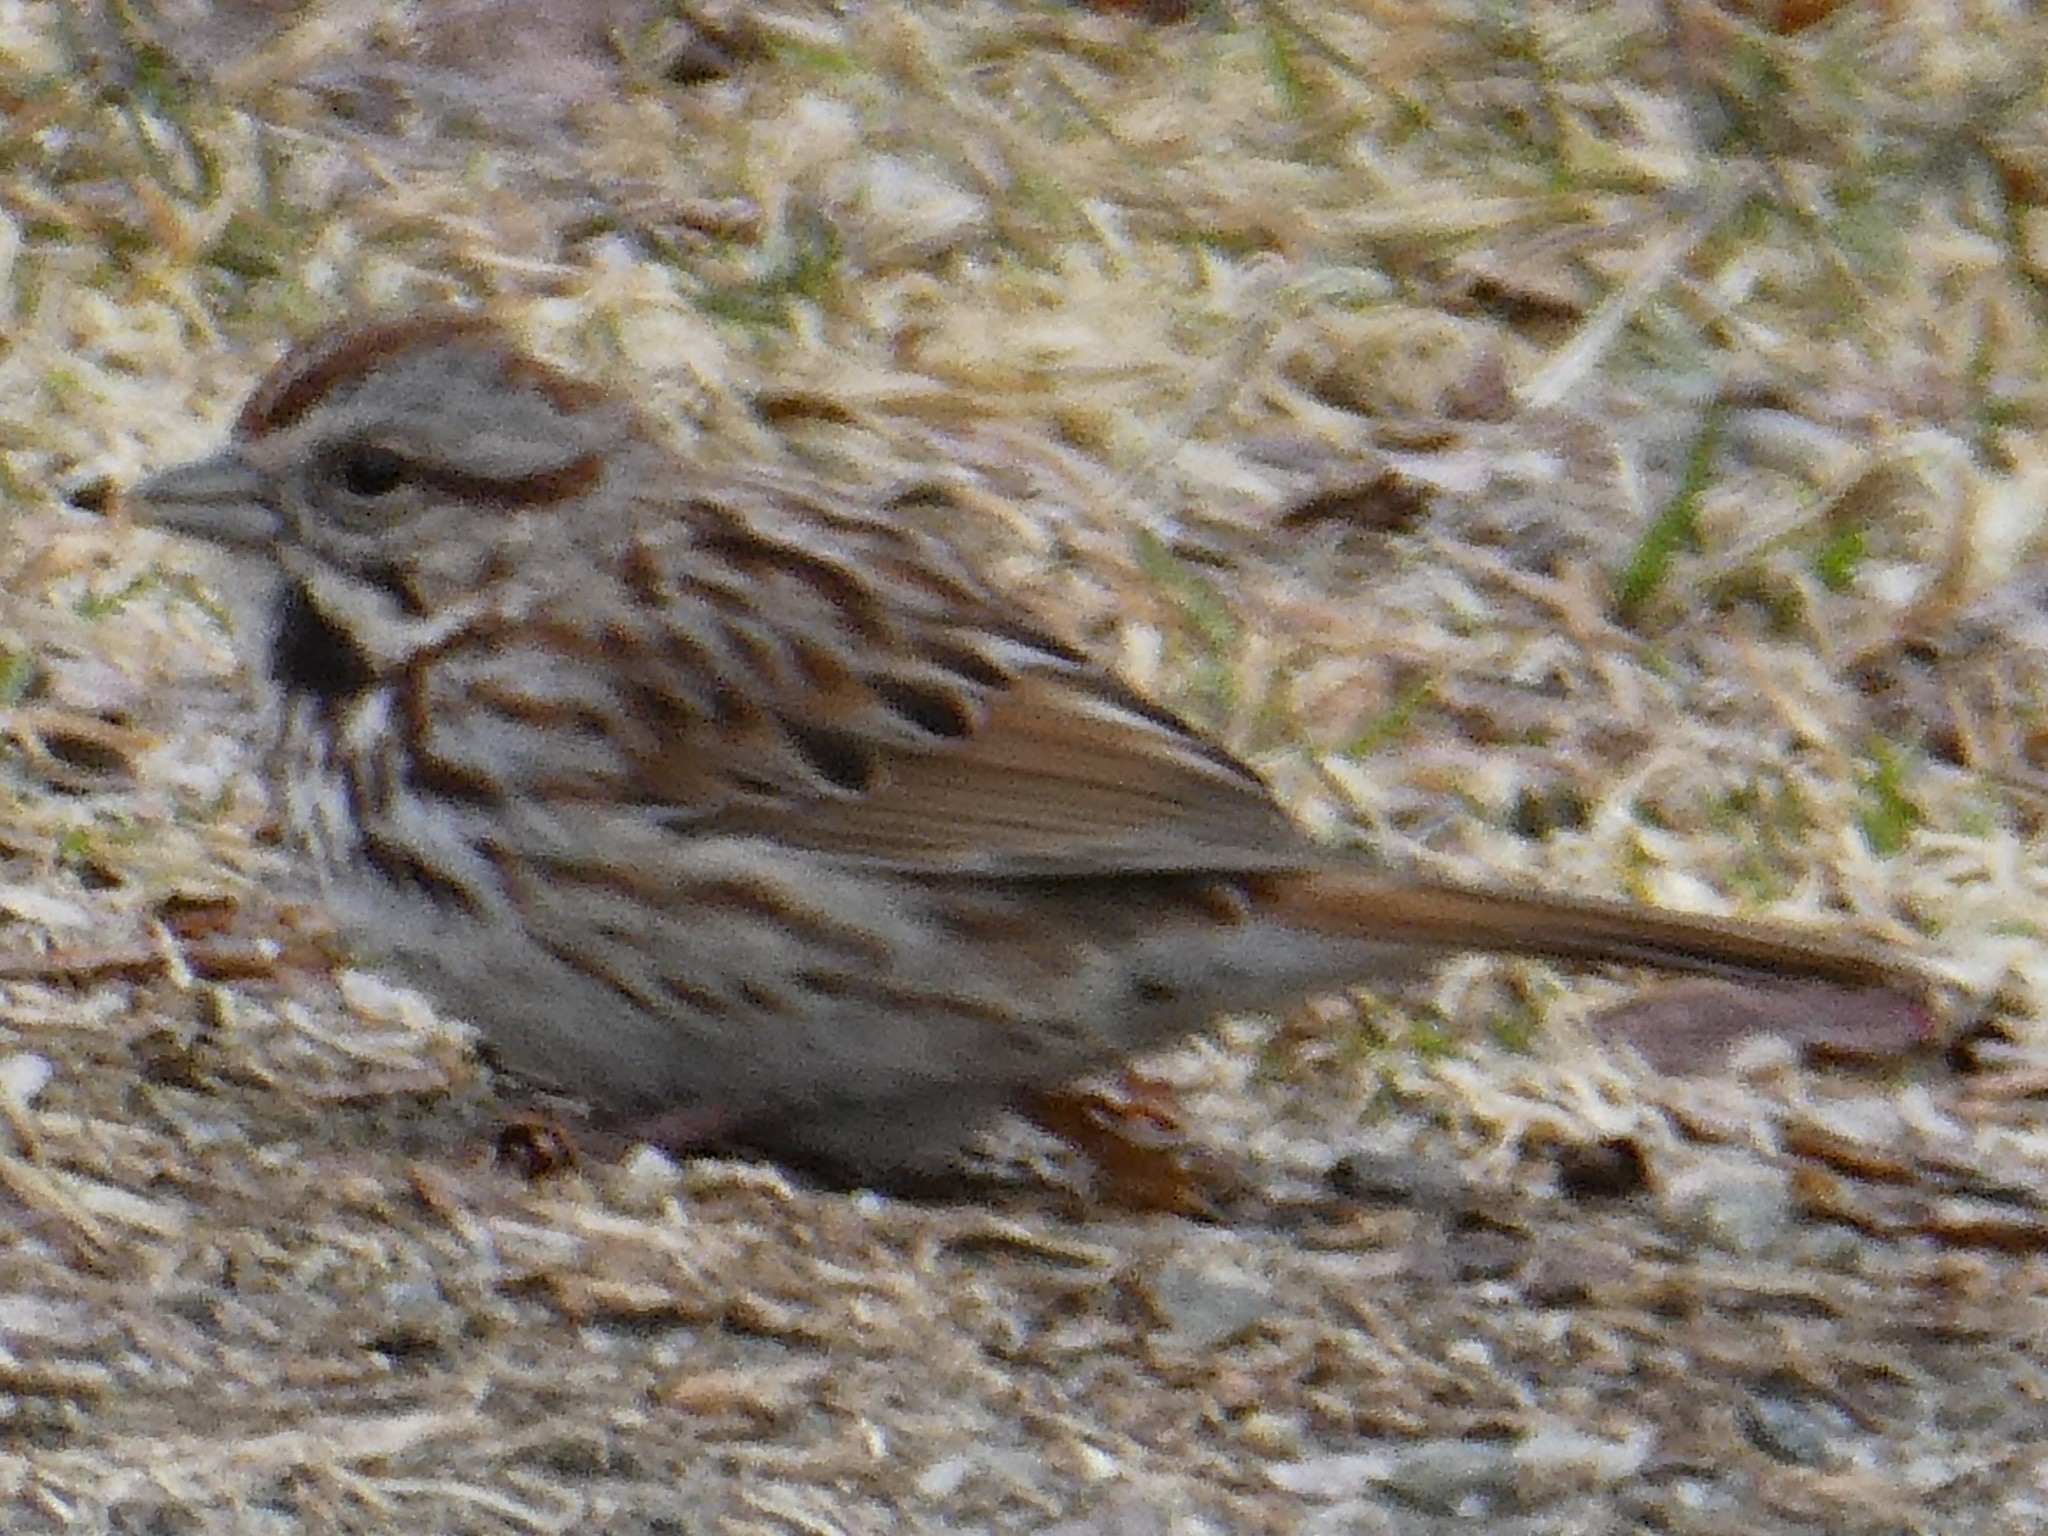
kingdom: Animalia
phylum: Chordata
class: Aves
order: Passeriformes
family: Passerellidae
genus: Melospiza
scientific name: Melospiza melodia
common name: Song sparrow
